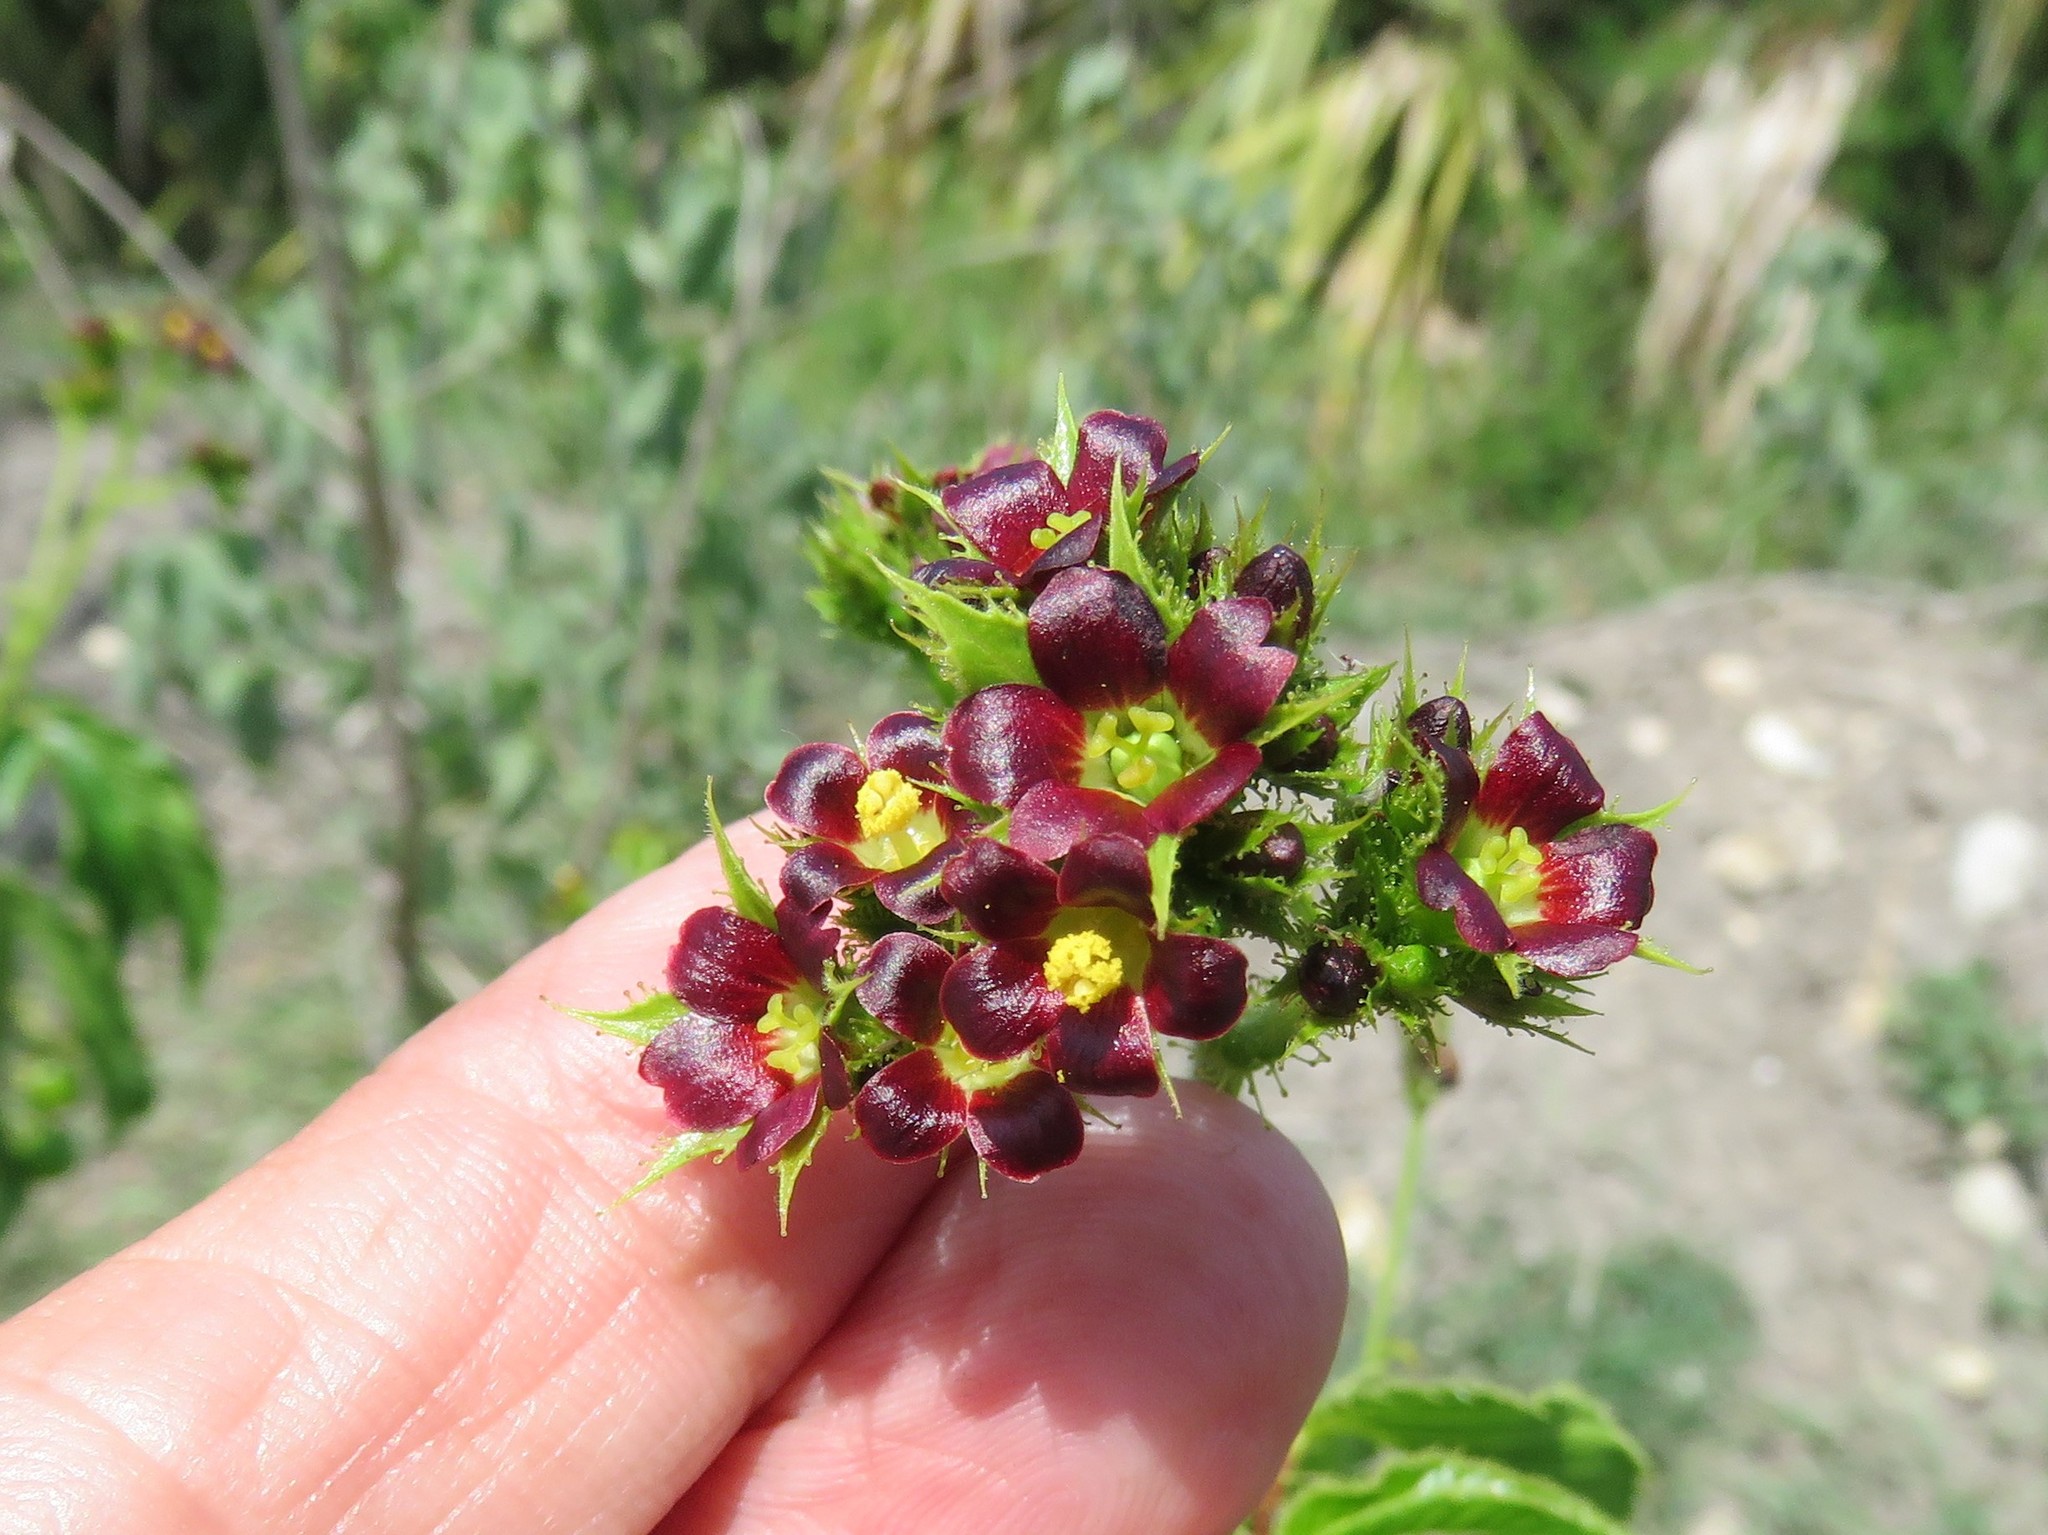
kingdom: Plantae
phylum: Tracheophyta
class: Magnoliopsida
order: Malpighiales
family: Euphorbiaceae
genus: Jatropha
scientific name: Jatropha gossypiifolia
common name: Bellyache bush
